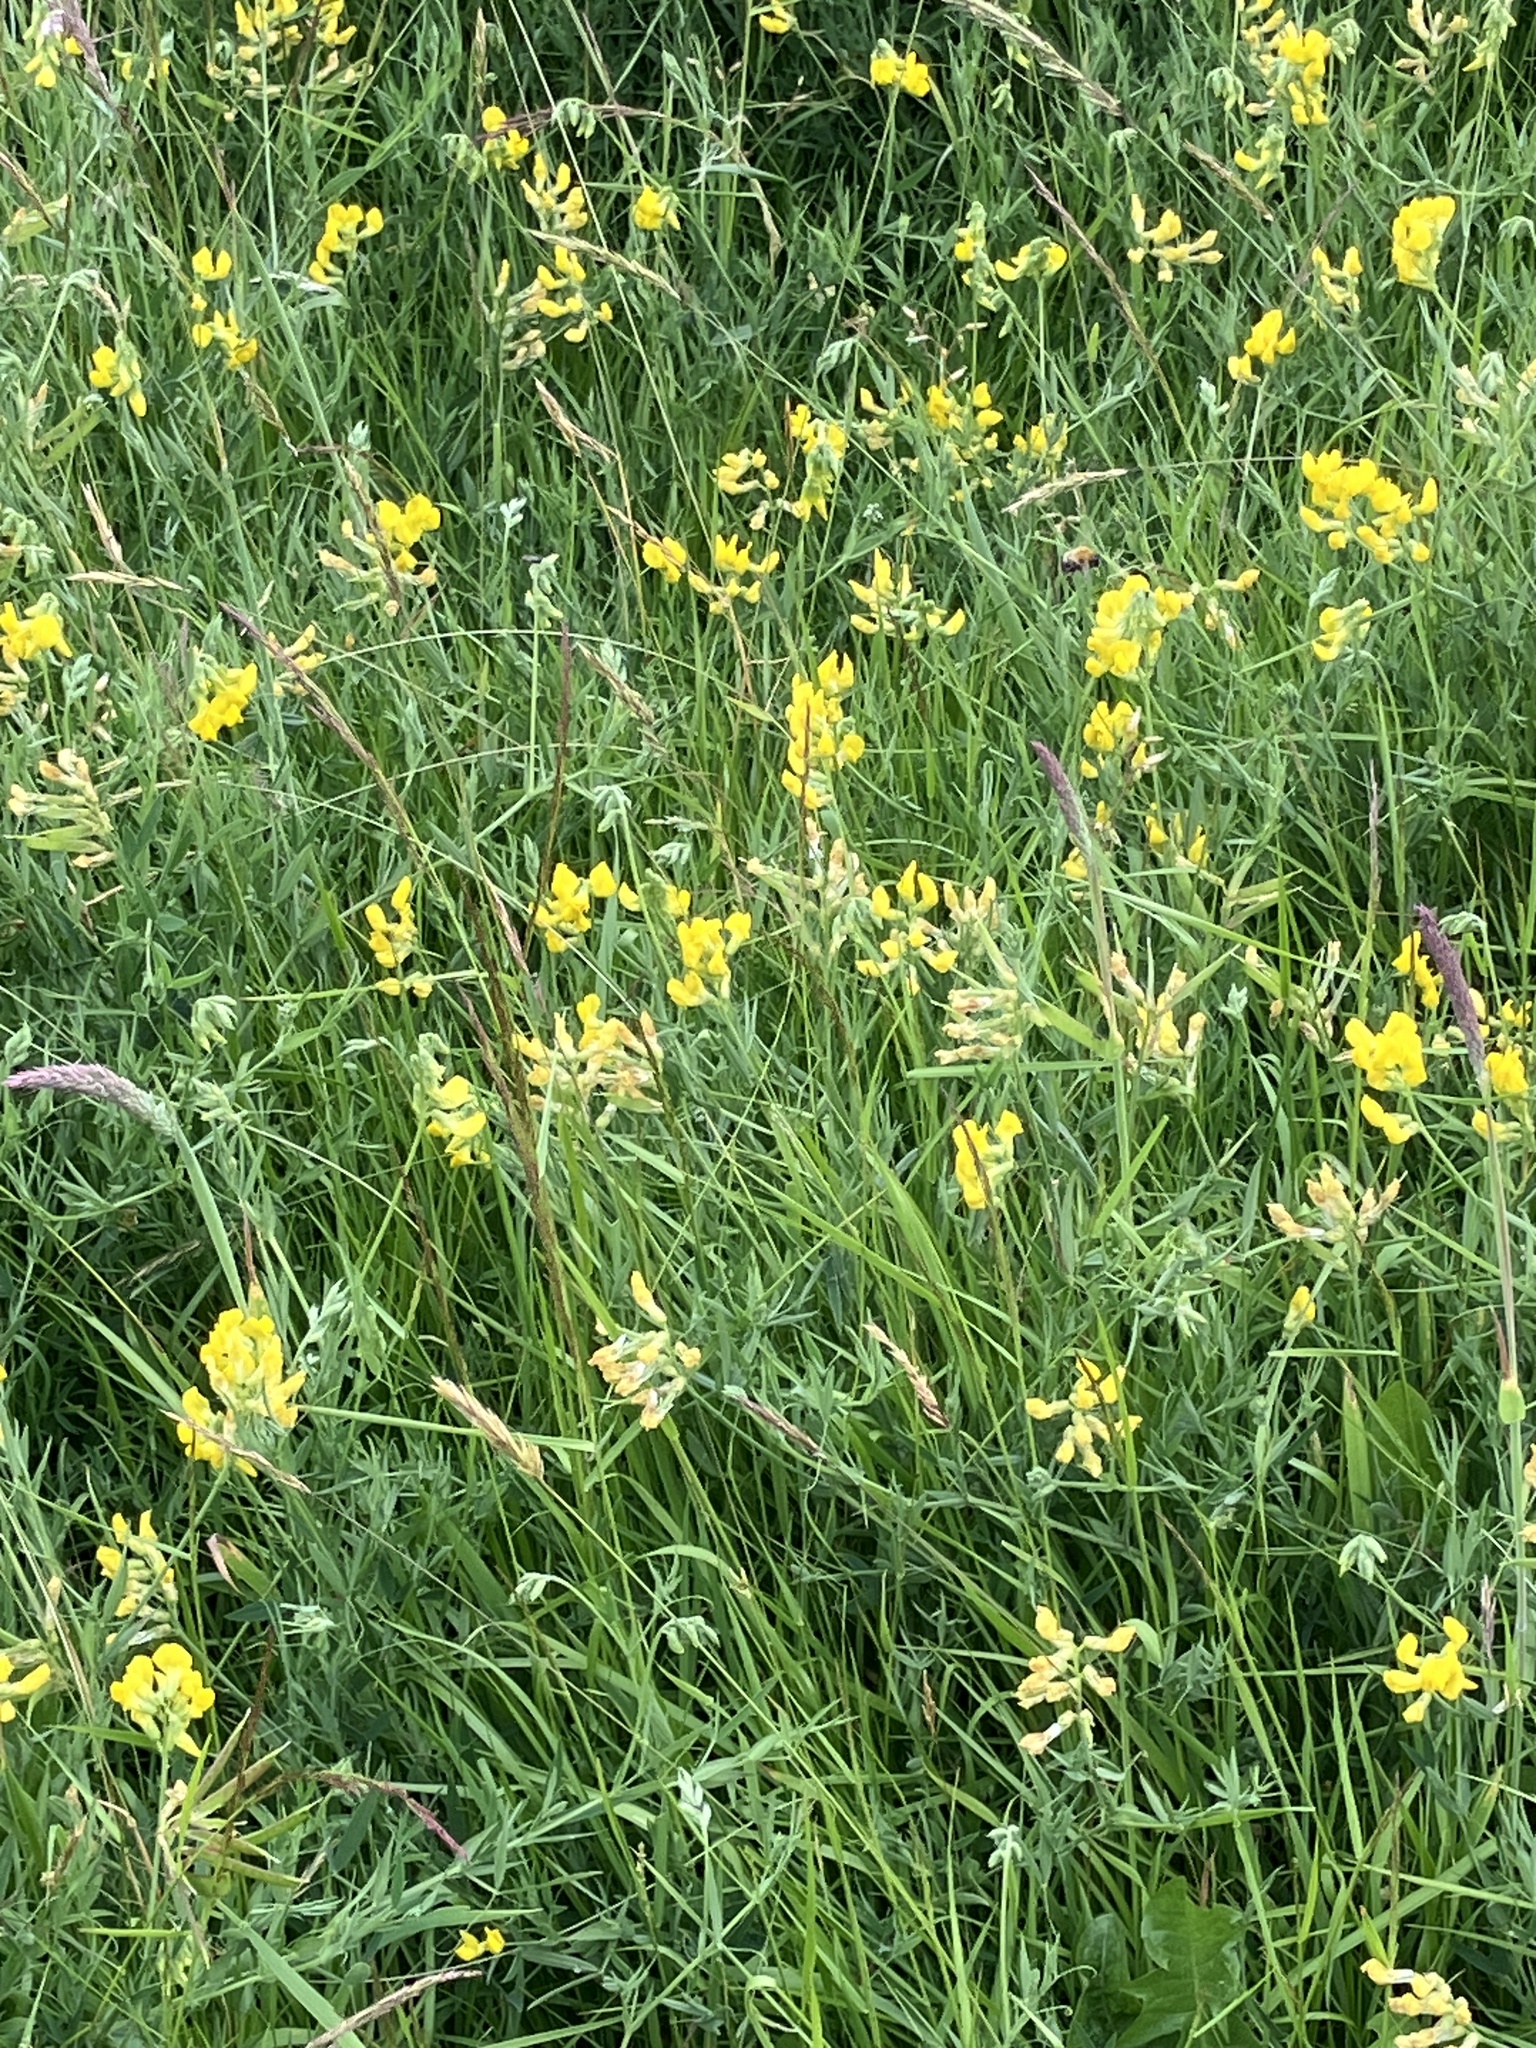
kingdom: Plantae
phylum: Tracheophyta
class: Magnoliopsida
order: Fabales
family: Fabaceae
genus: Lathyrus
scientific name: Lathyrus pratensis
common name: Meadow vetchling
